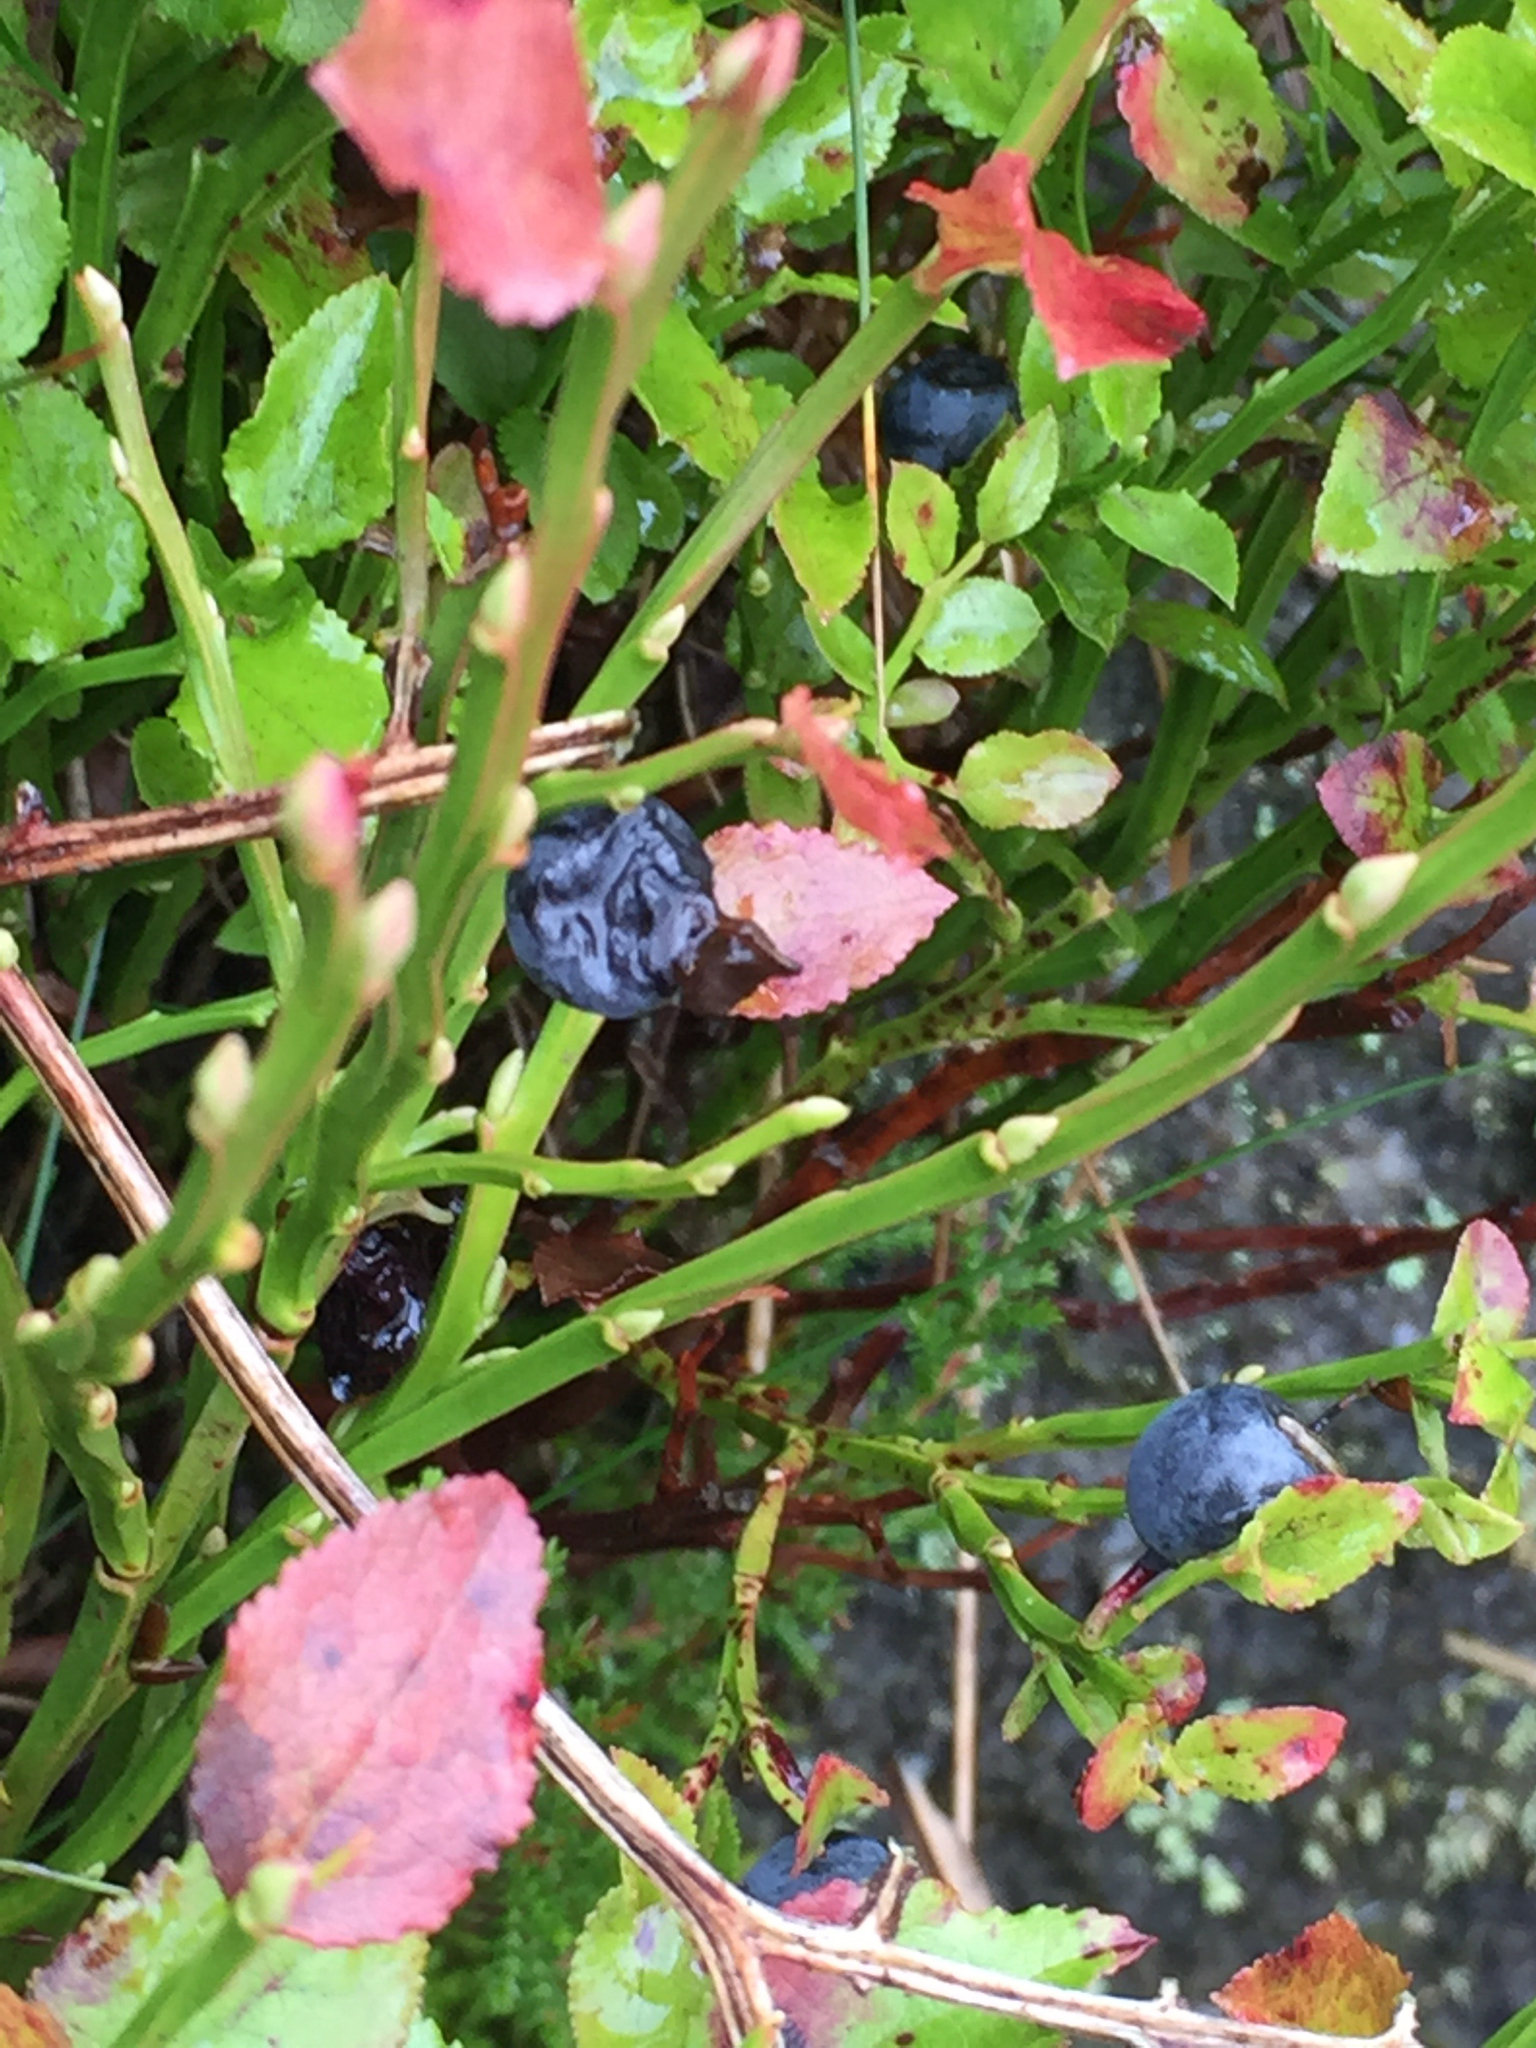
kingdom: Plantae
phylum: Tracheophyta
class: Magnoliopsida
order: Ericales
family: Ericaceae
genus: Vaccinium
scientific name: Vaccinium myrtillus
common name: Bilberry
